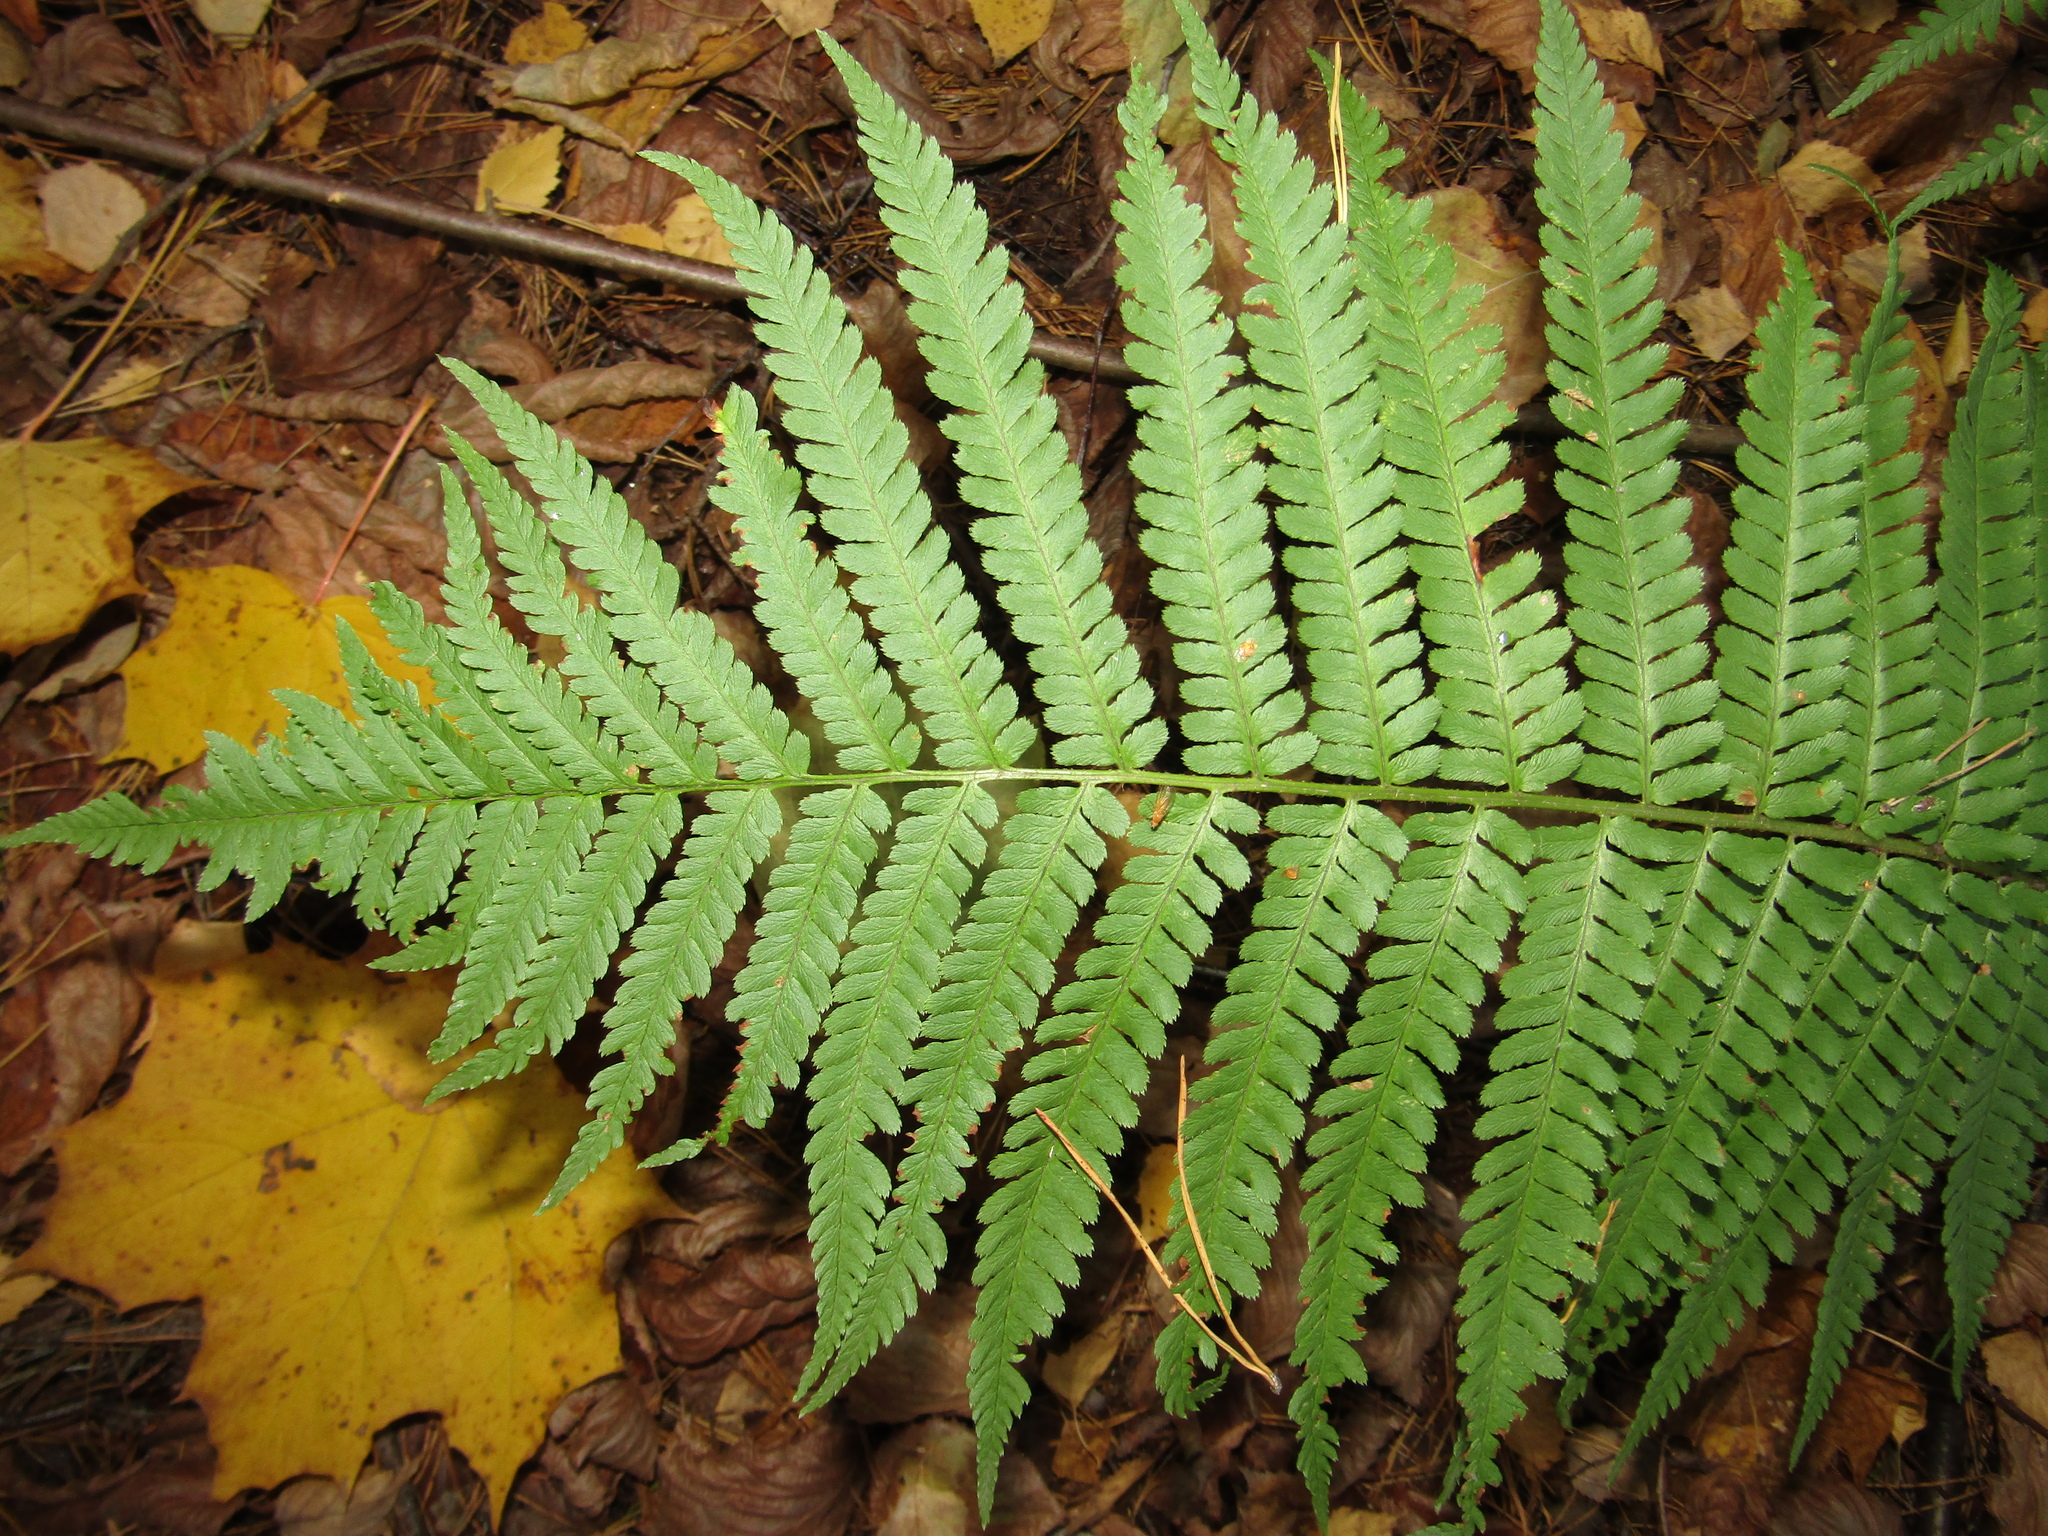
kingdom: Plantae
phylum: Tracheophyta
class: Polypodiopsida
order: Polypodiales
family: Dryopteridaceae
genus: Dryopteris
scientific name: Dryopteris filix-mas
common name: Male fern
